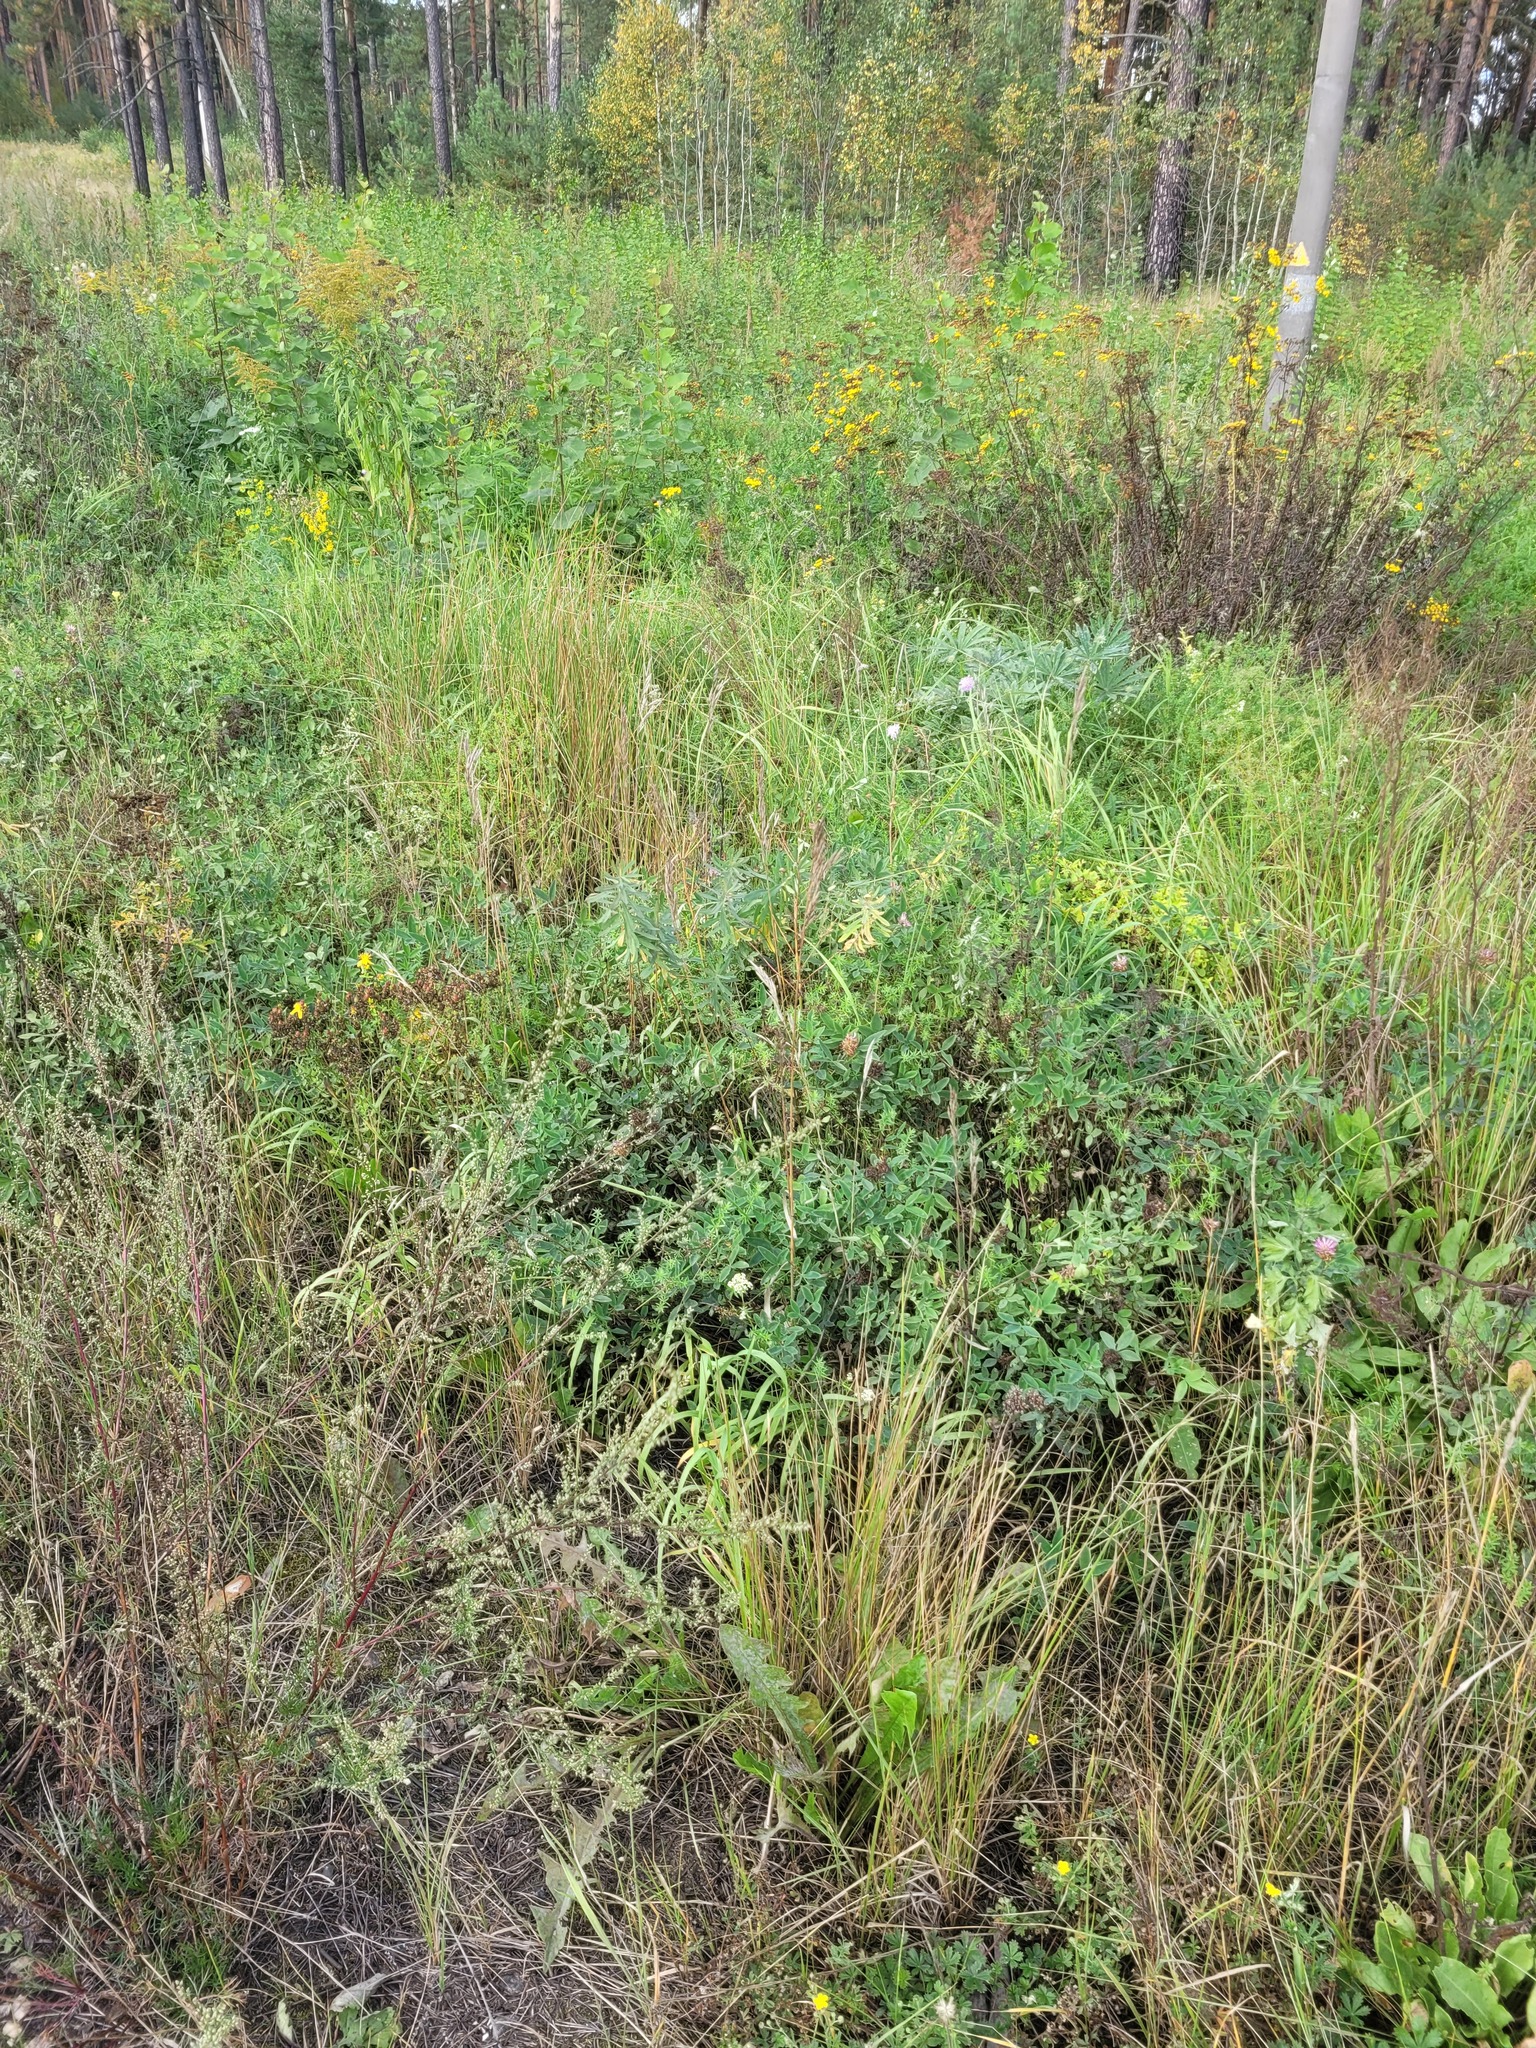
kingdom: Plantae
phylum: Tracheophyta
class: Magnoliopsida
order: Fabales
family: Fabaceae
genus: Trifolium
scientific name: Trifolium medium
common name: Zigzag clover
